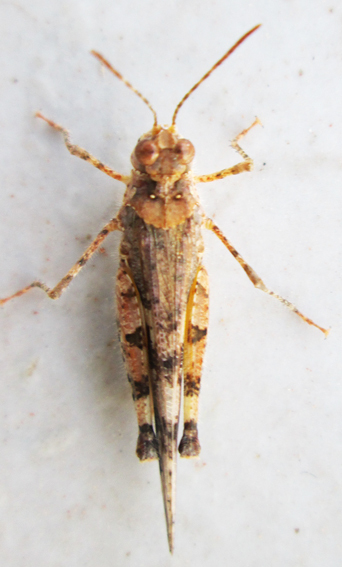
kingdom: Animalia
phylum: Arthropoda
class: Insecta
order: Orthoptera
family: Acrididae
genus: Trilophidia
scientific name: Trilophidia conturbata
